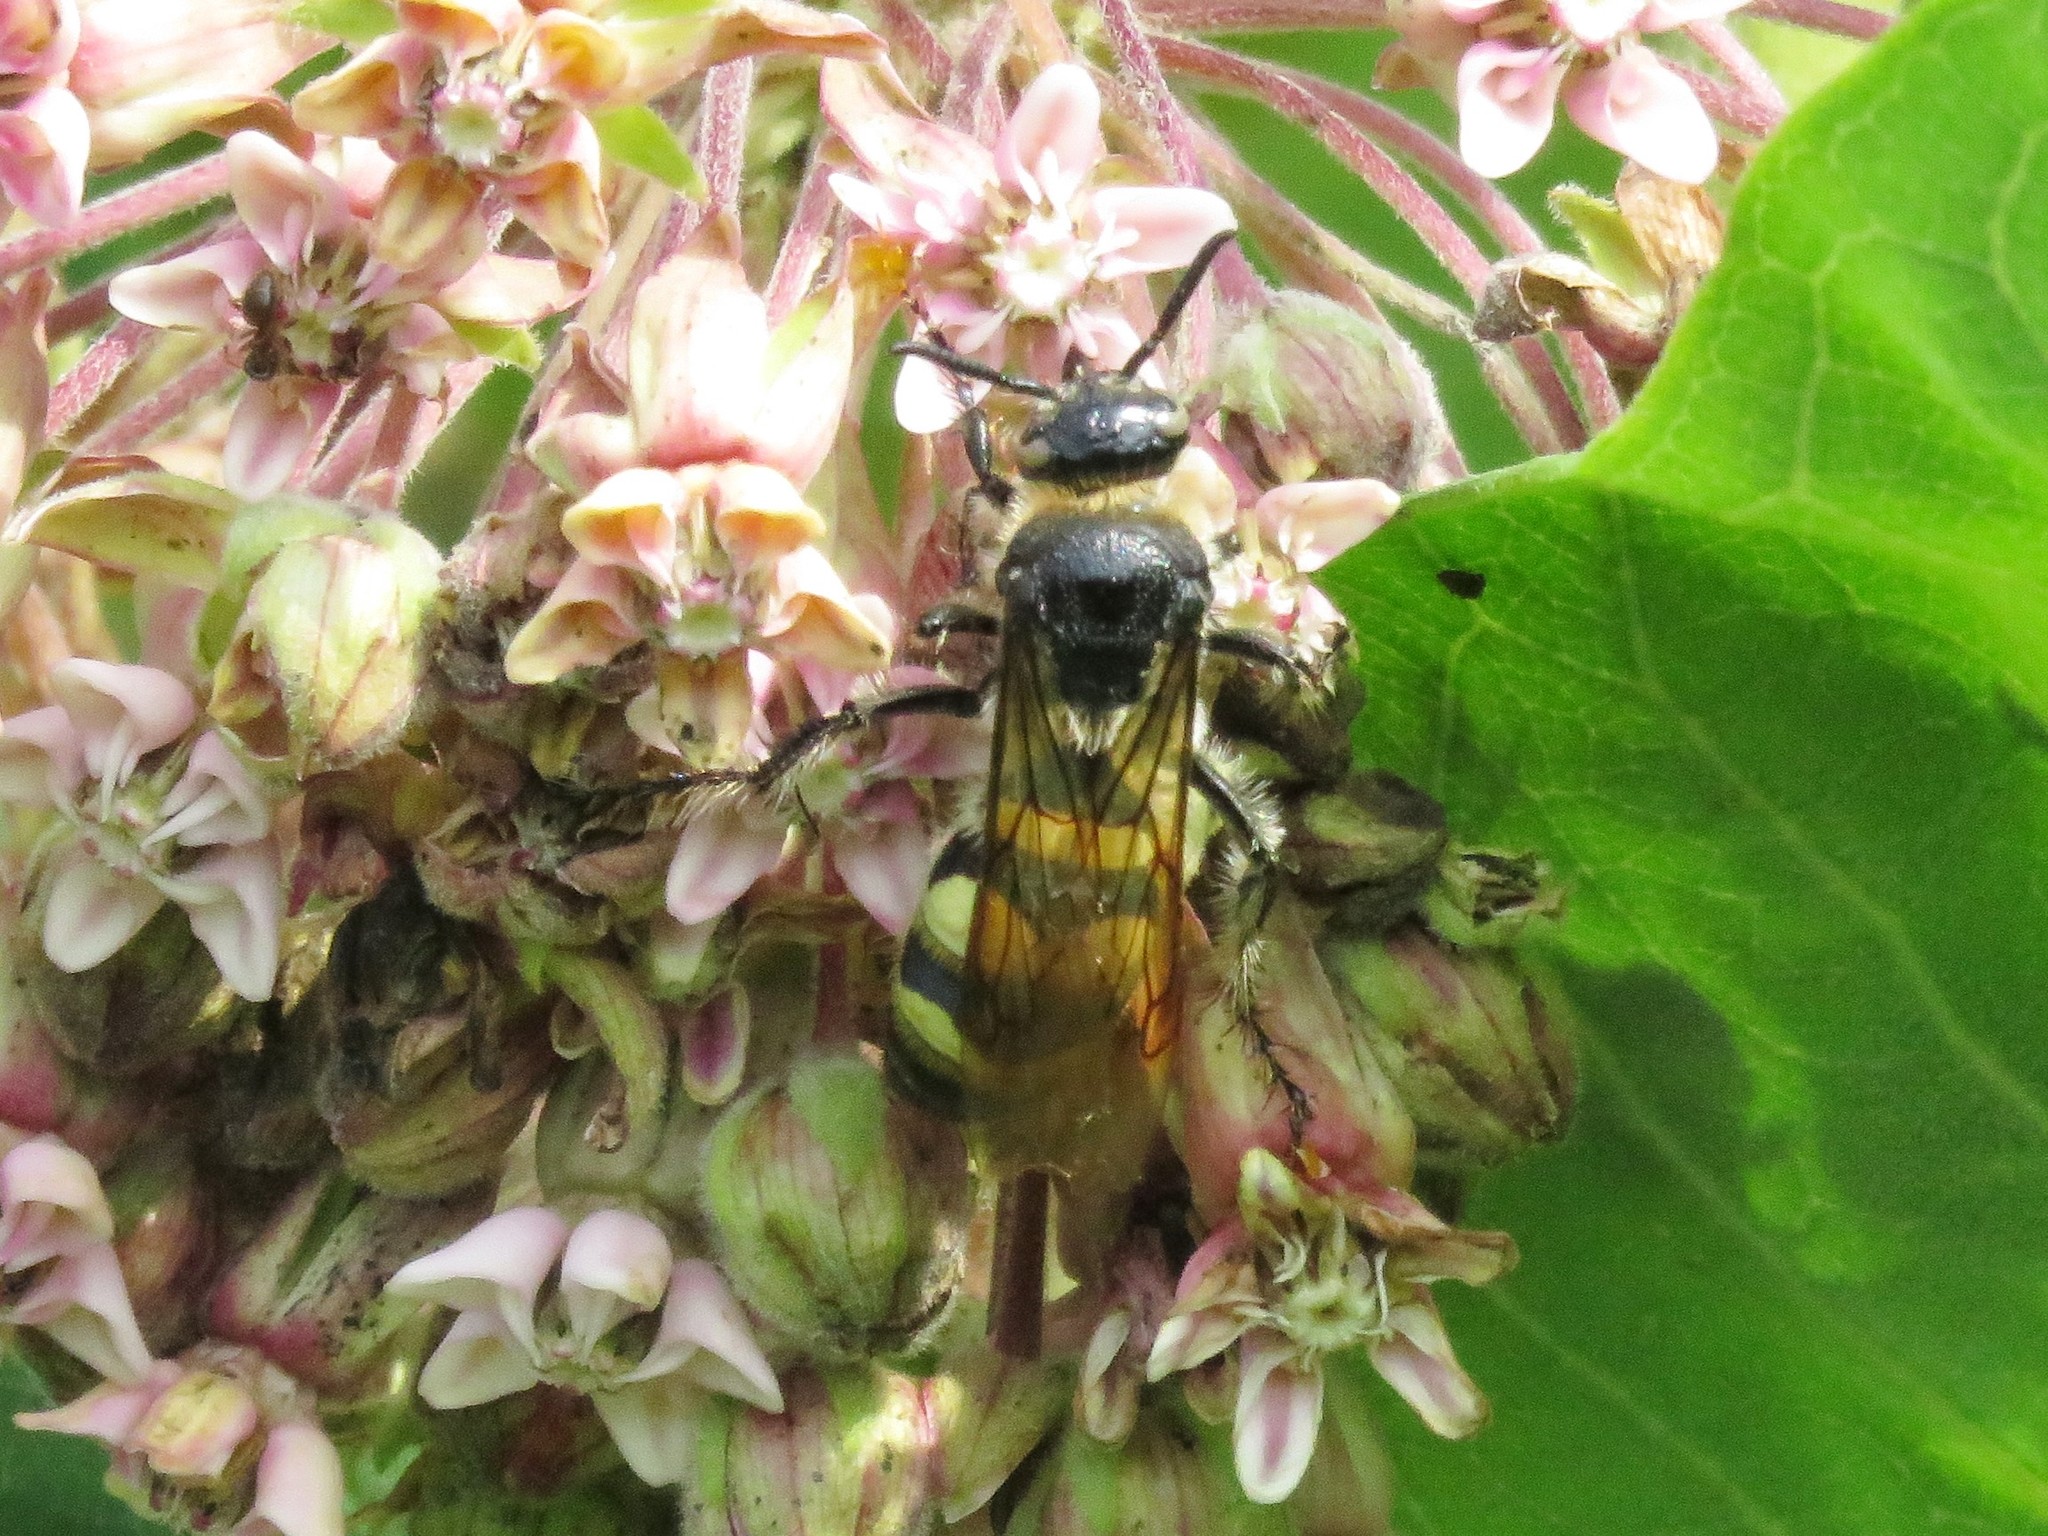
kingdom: Animalia
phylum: Arthropoda
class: Insecta
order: Hymenoptera
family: Scoliidae
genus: Dielis
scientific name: Dielis
